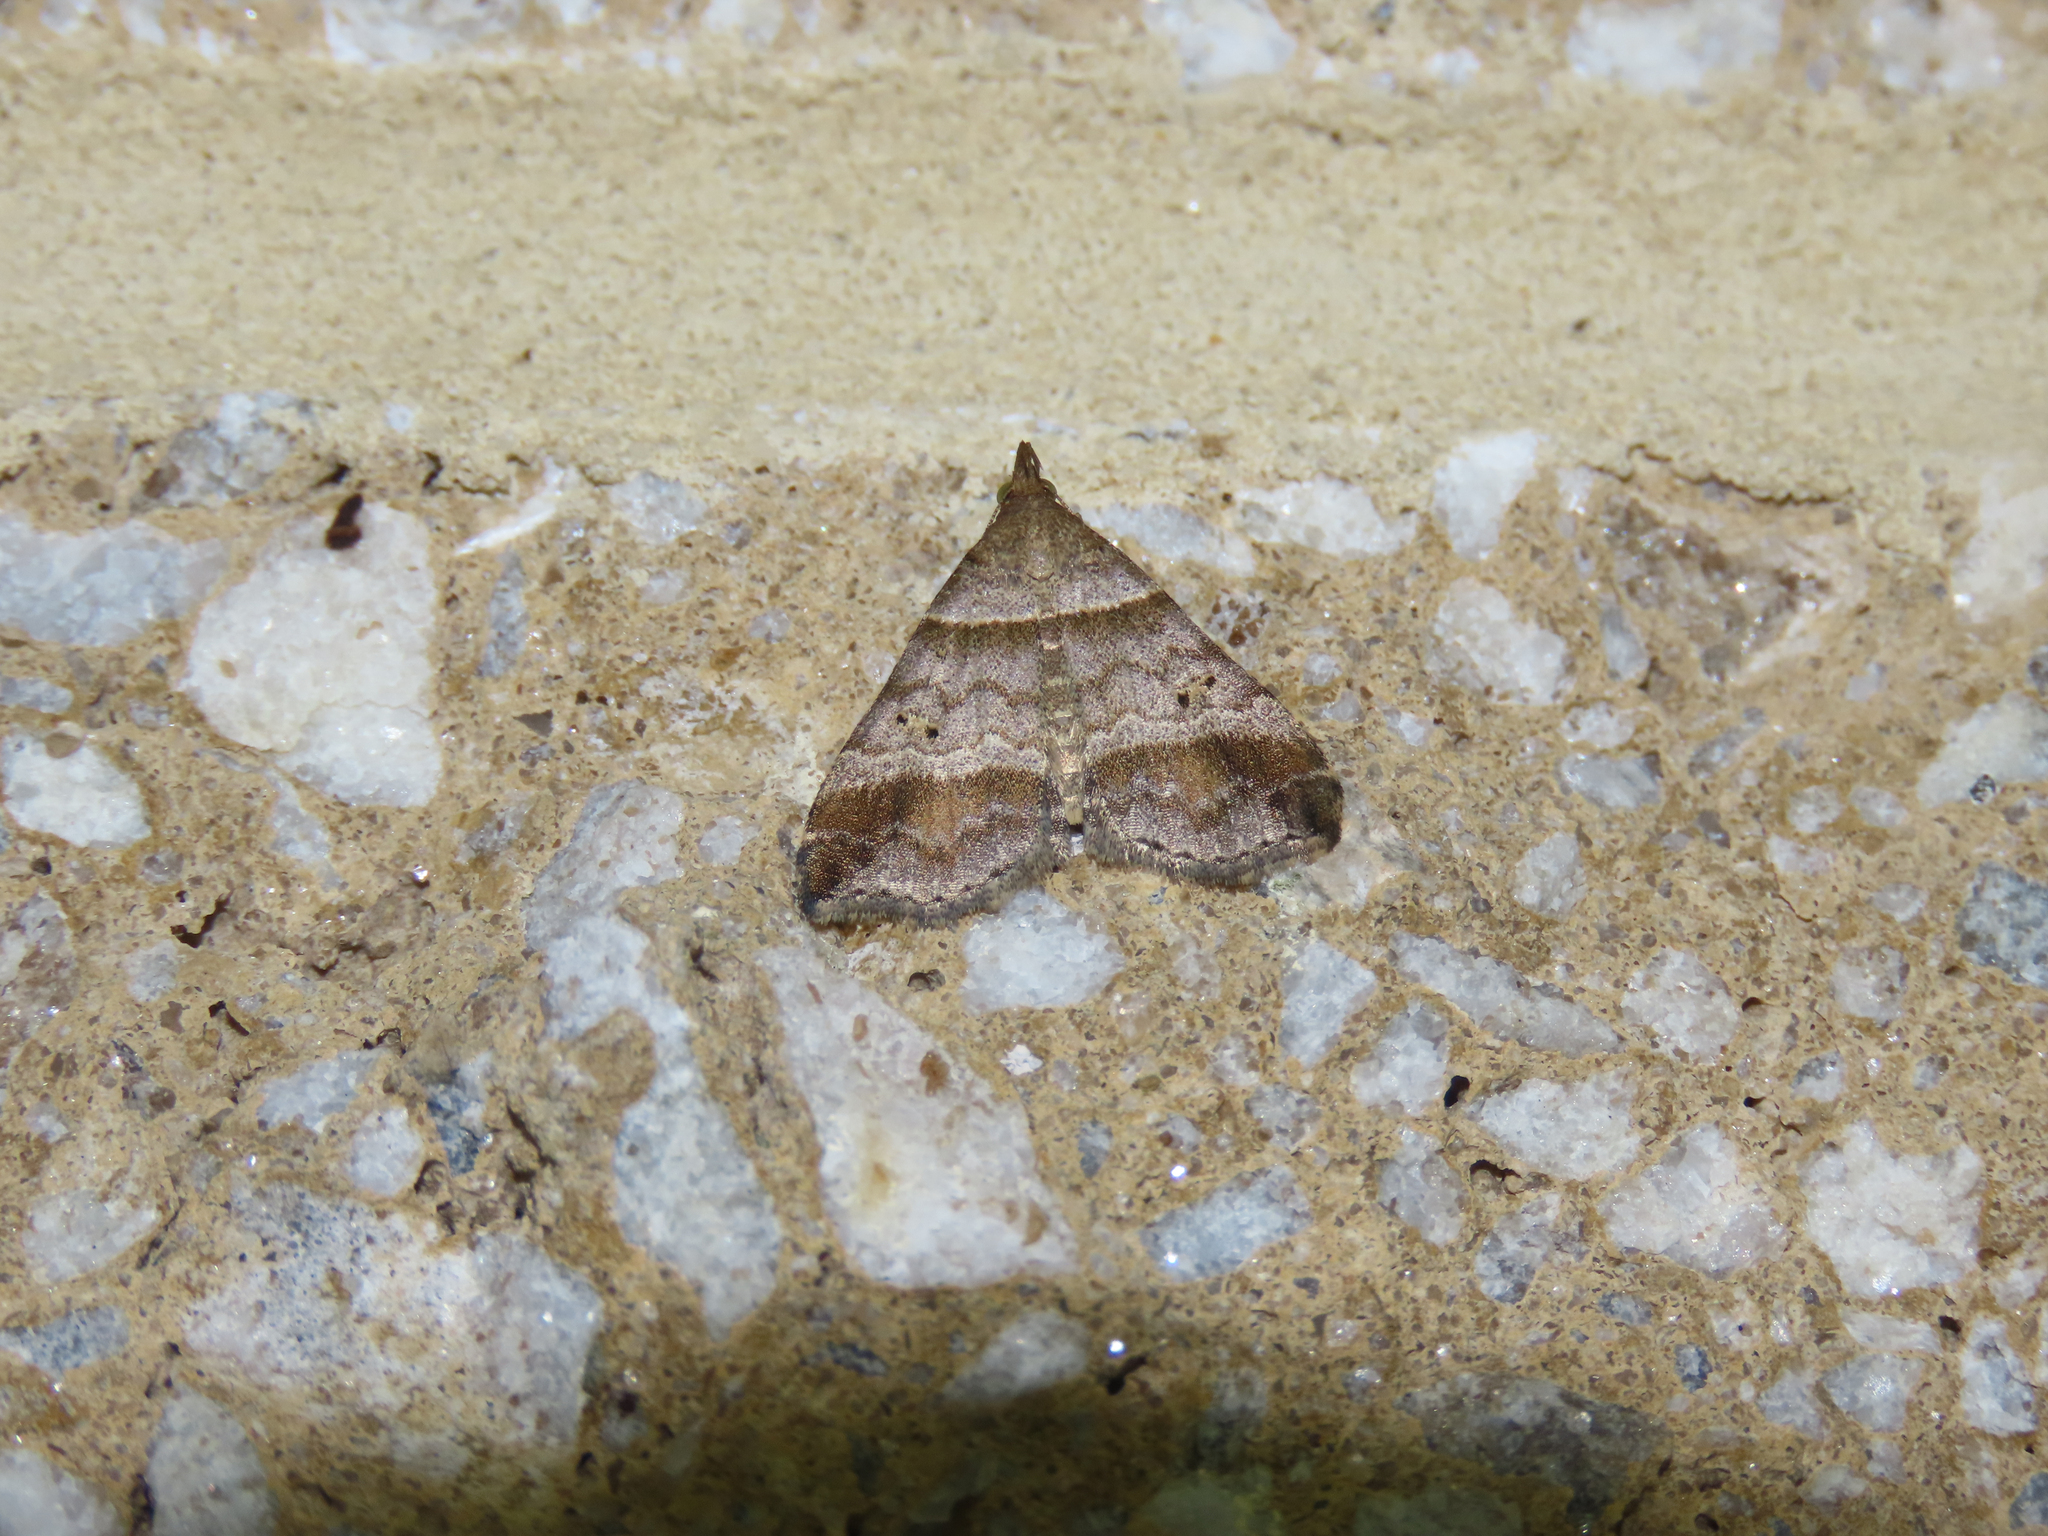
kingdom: Animalia
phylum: Arthropoda
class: Insecta
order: Lepidoptera
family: Erebidae
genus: Phaeolita
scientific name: Phaeolita pyramusalis
